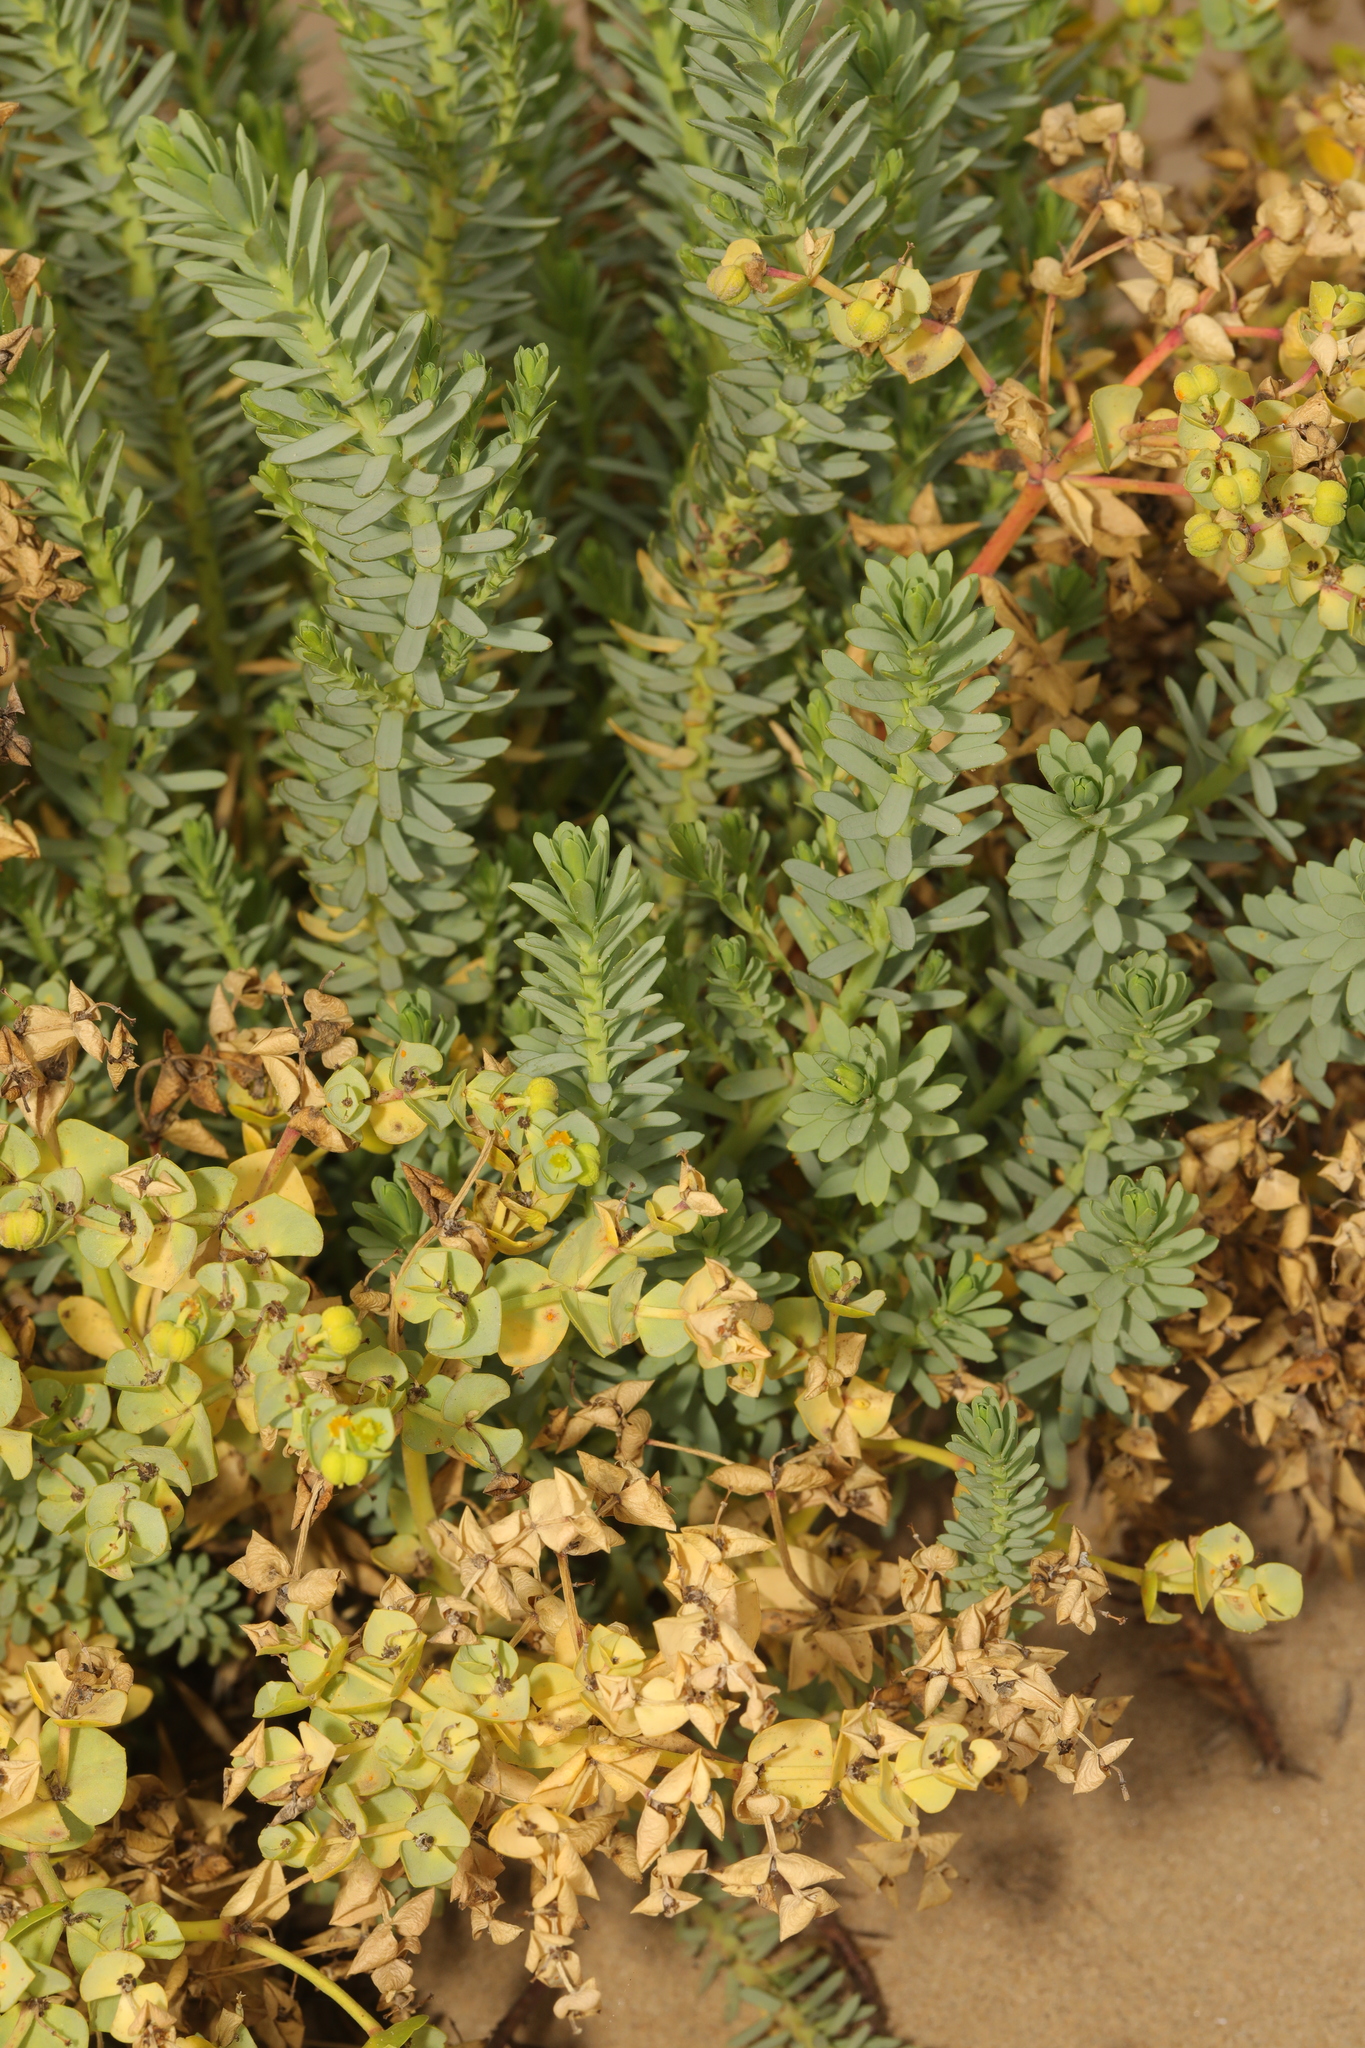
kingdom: Plantae
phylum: Tracheophyta
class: Magnoliopsida
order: Malpighiales
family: Euphorbiaceae
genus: Euphorbia
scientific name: Euphorbia paralias
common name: Sea spurge
